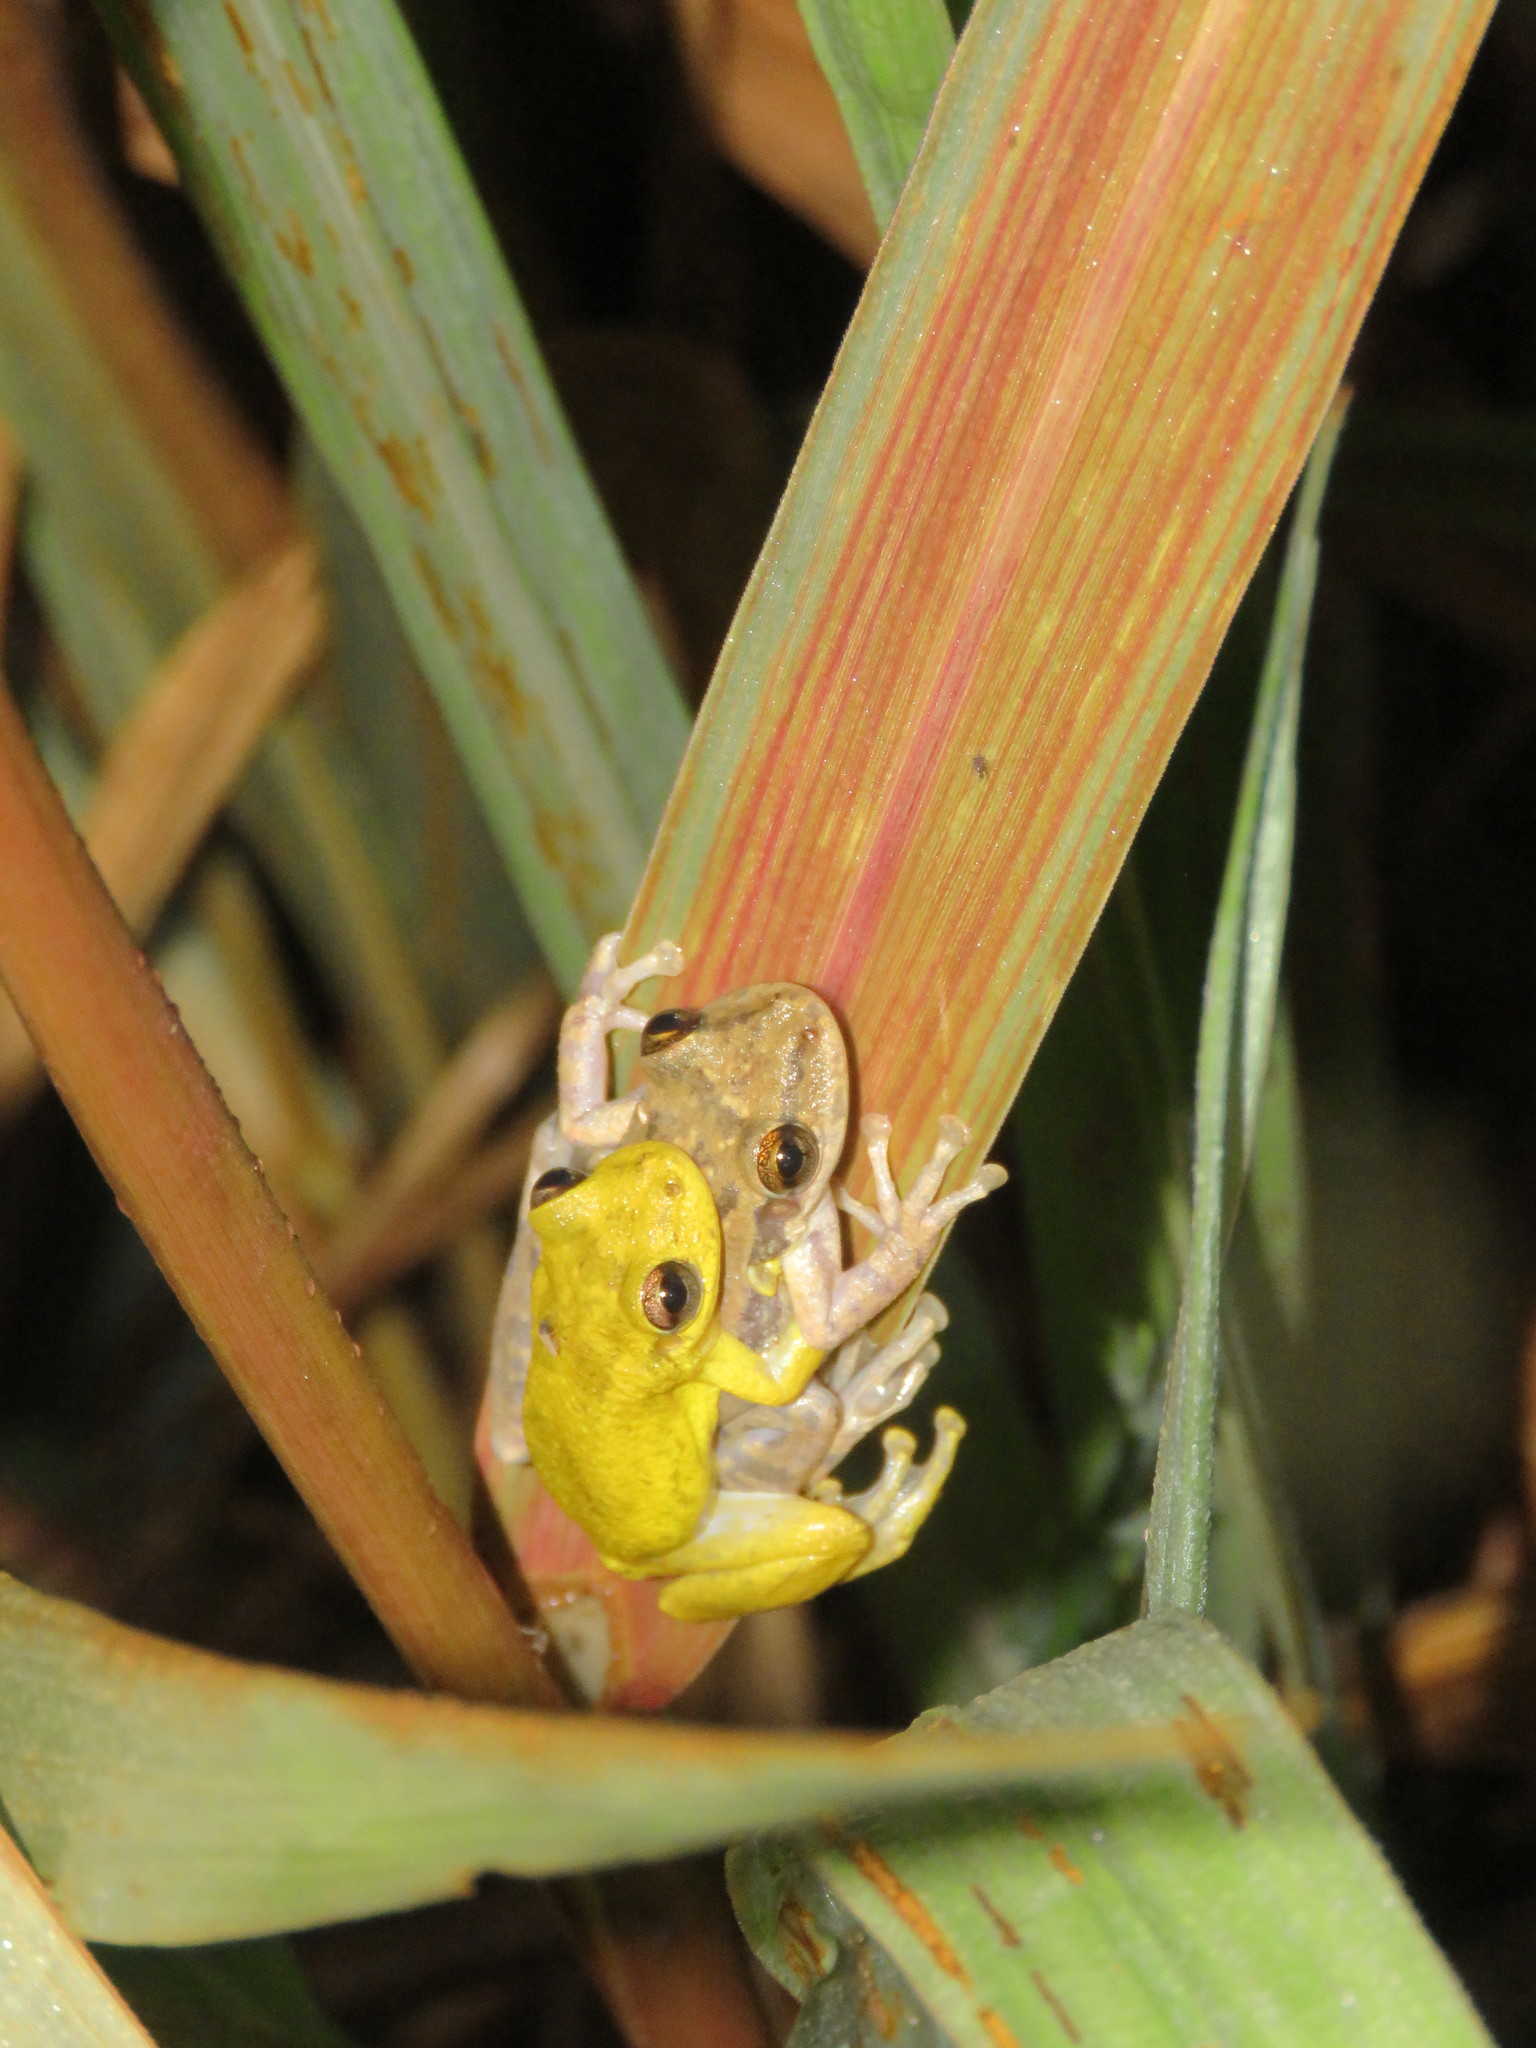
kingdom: Animalia
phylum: Chordata
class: Amphibia
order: Anura
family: Hylidae
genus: Scinax
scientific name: Scinax ruber
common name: Red snouted treefrog
